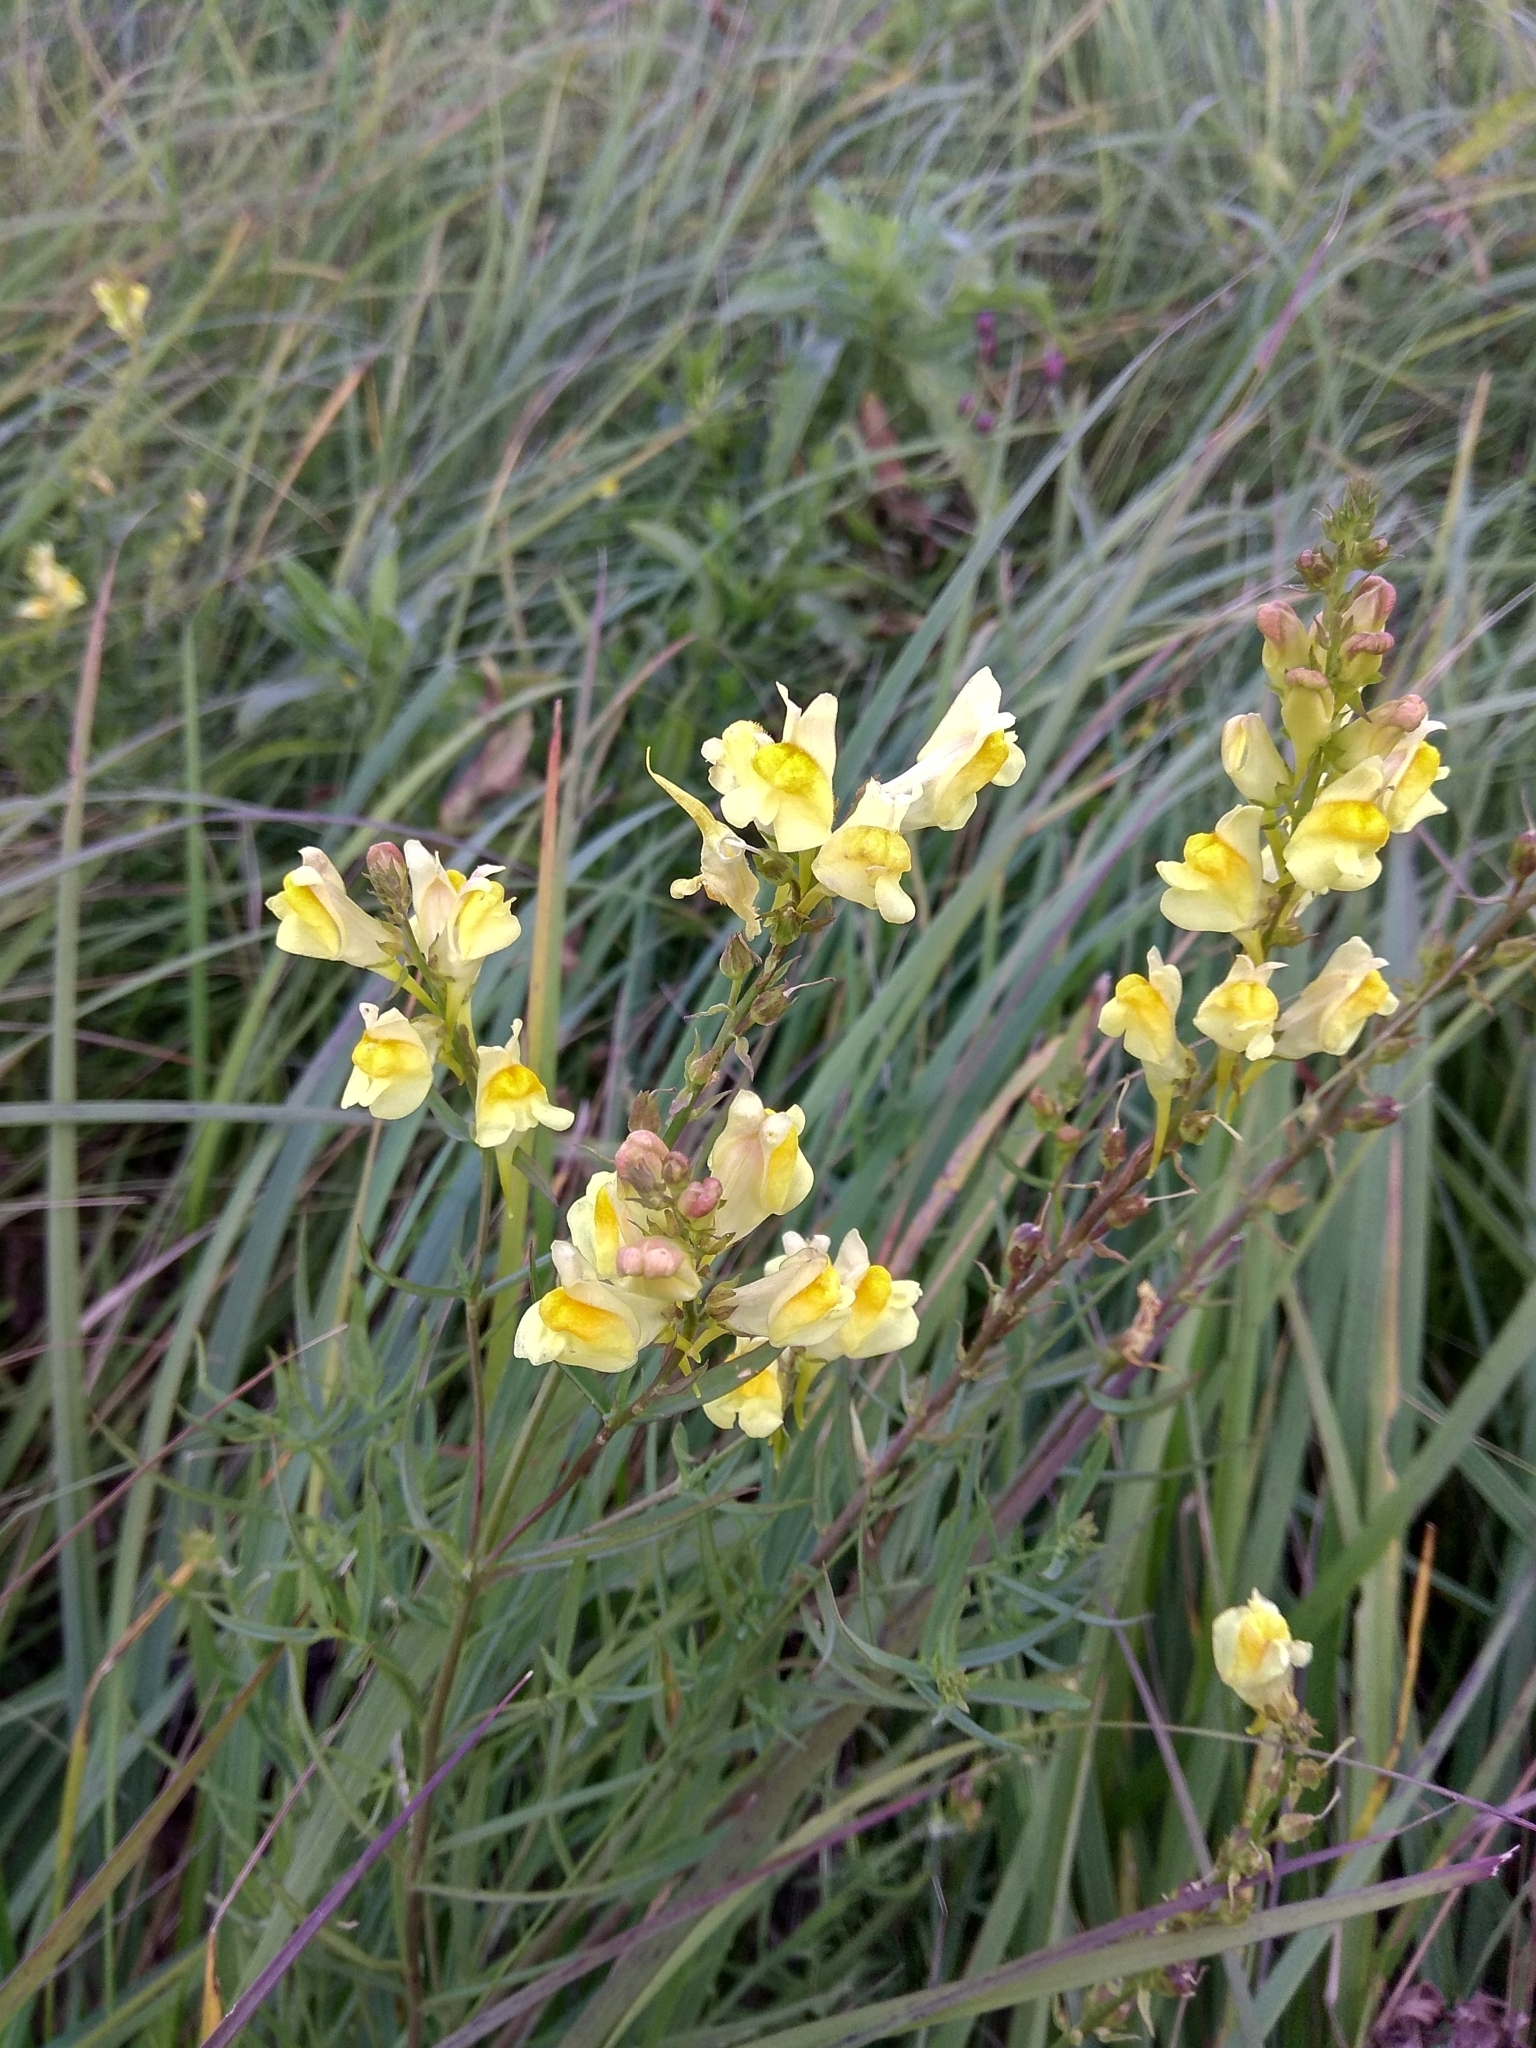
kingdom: Plantae
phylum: Tracheophyta
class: Magnoliopsida
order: Lamiales
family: Plantaginaceae
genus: Linaria
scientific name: Linaria vulgaris
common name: Butter and eggs
